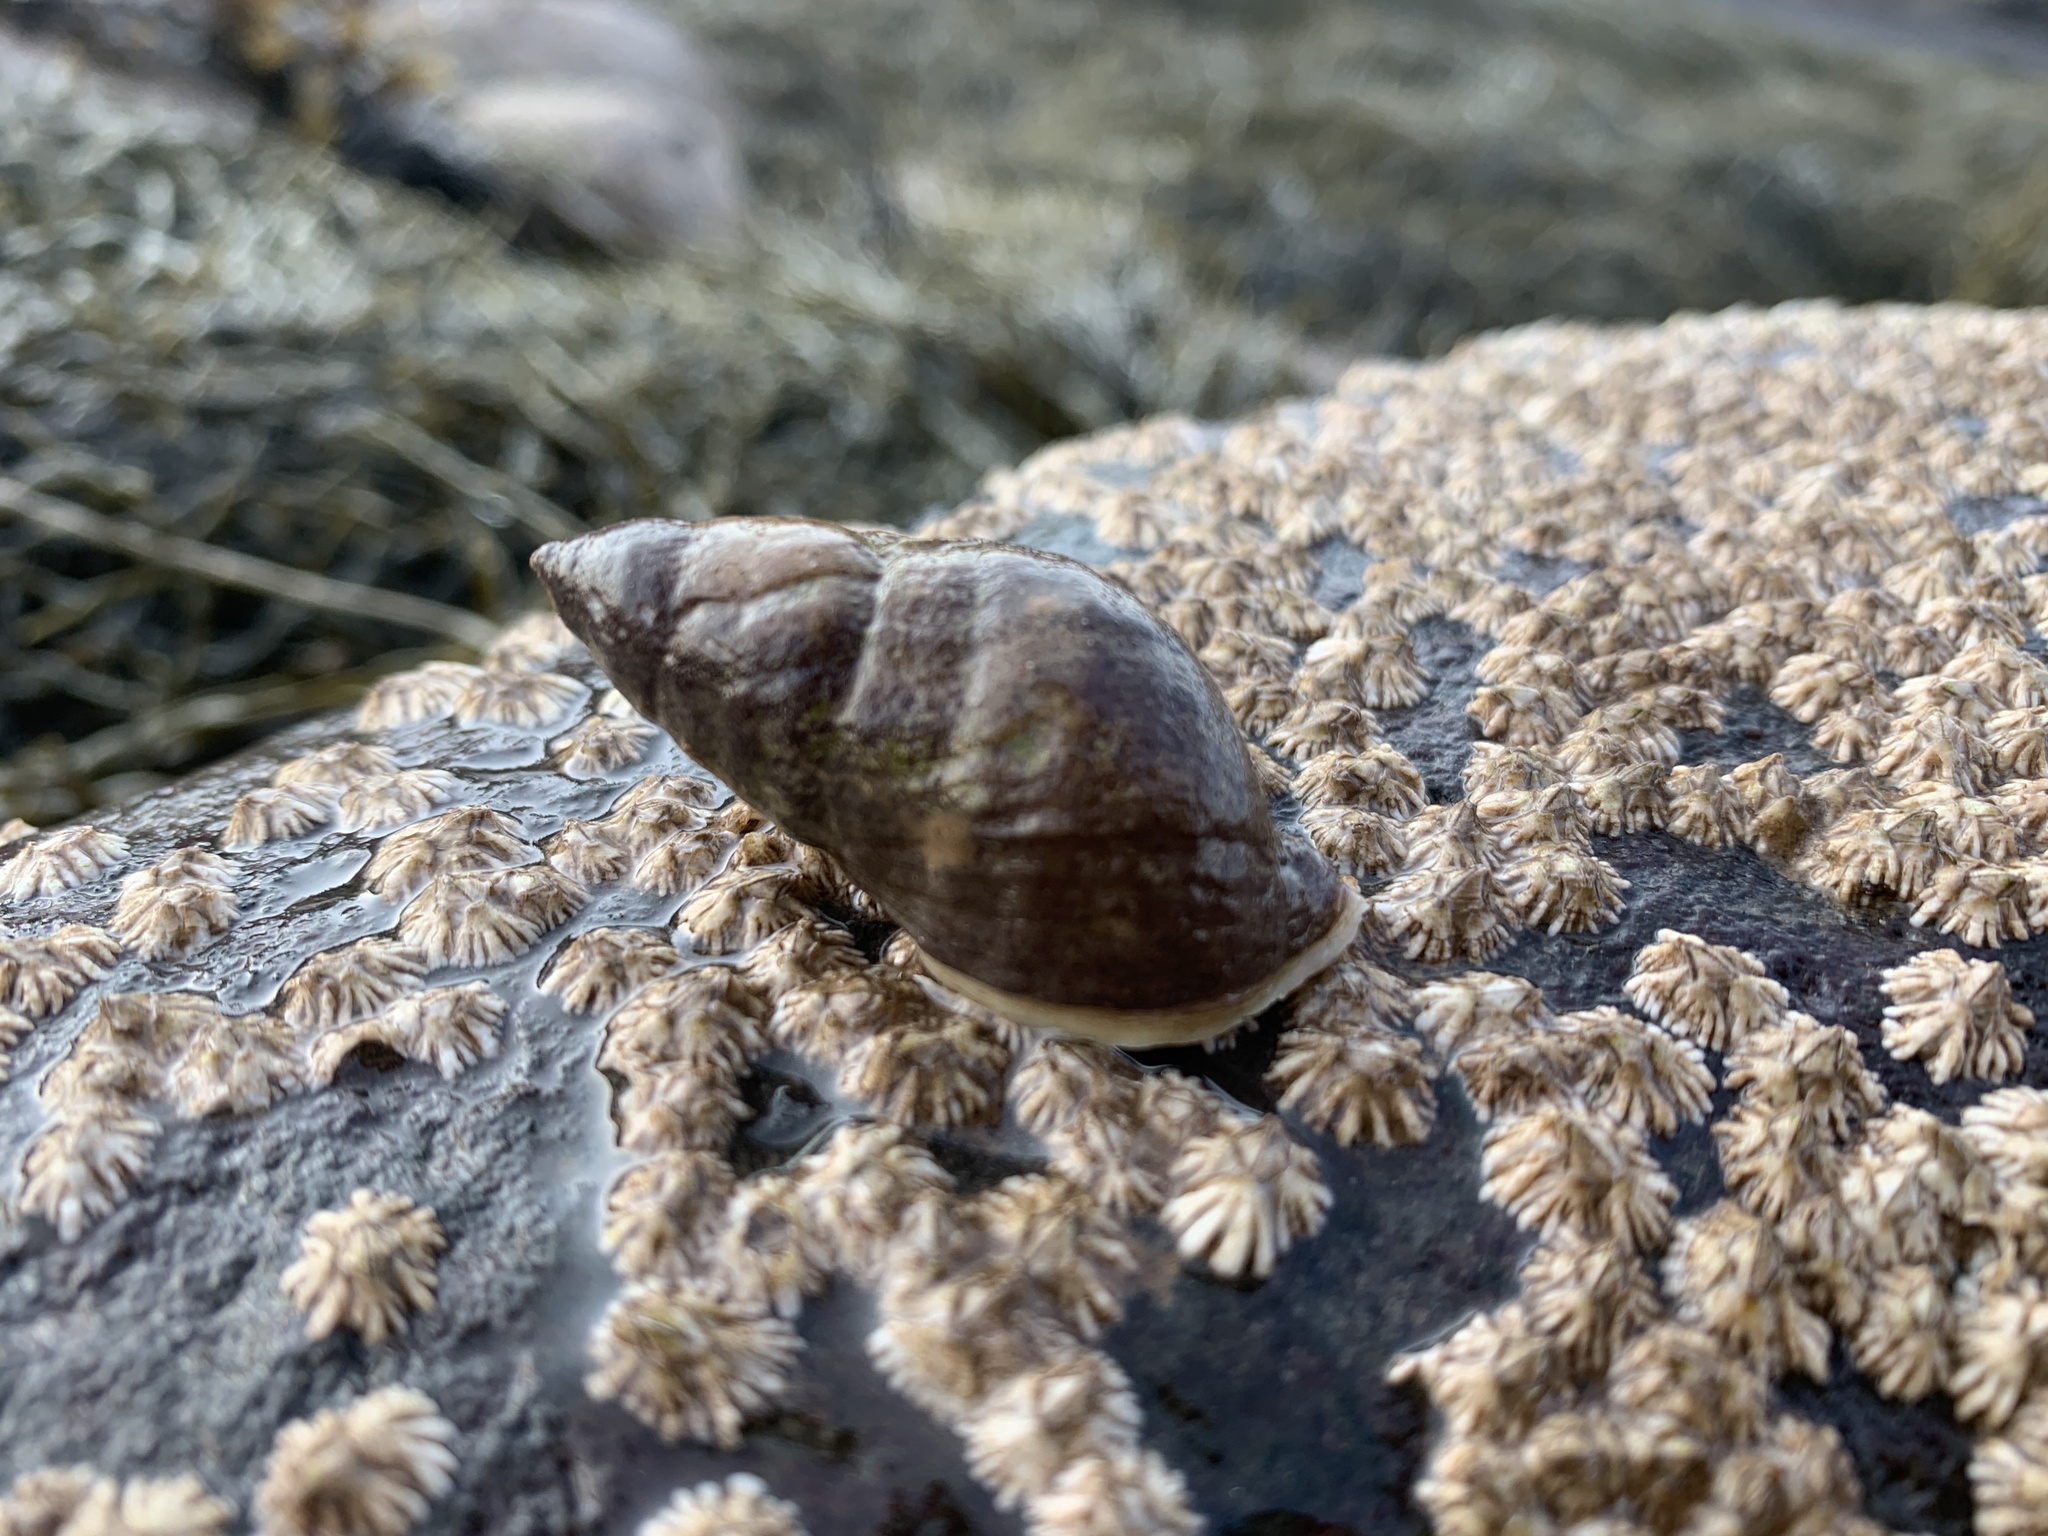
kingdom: Animalia
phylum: Mollusca
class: Gastropoda
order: Neogastropoda
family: Muricidae
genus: Nucella
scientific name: Nucella lapillus
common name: Dog whelk
